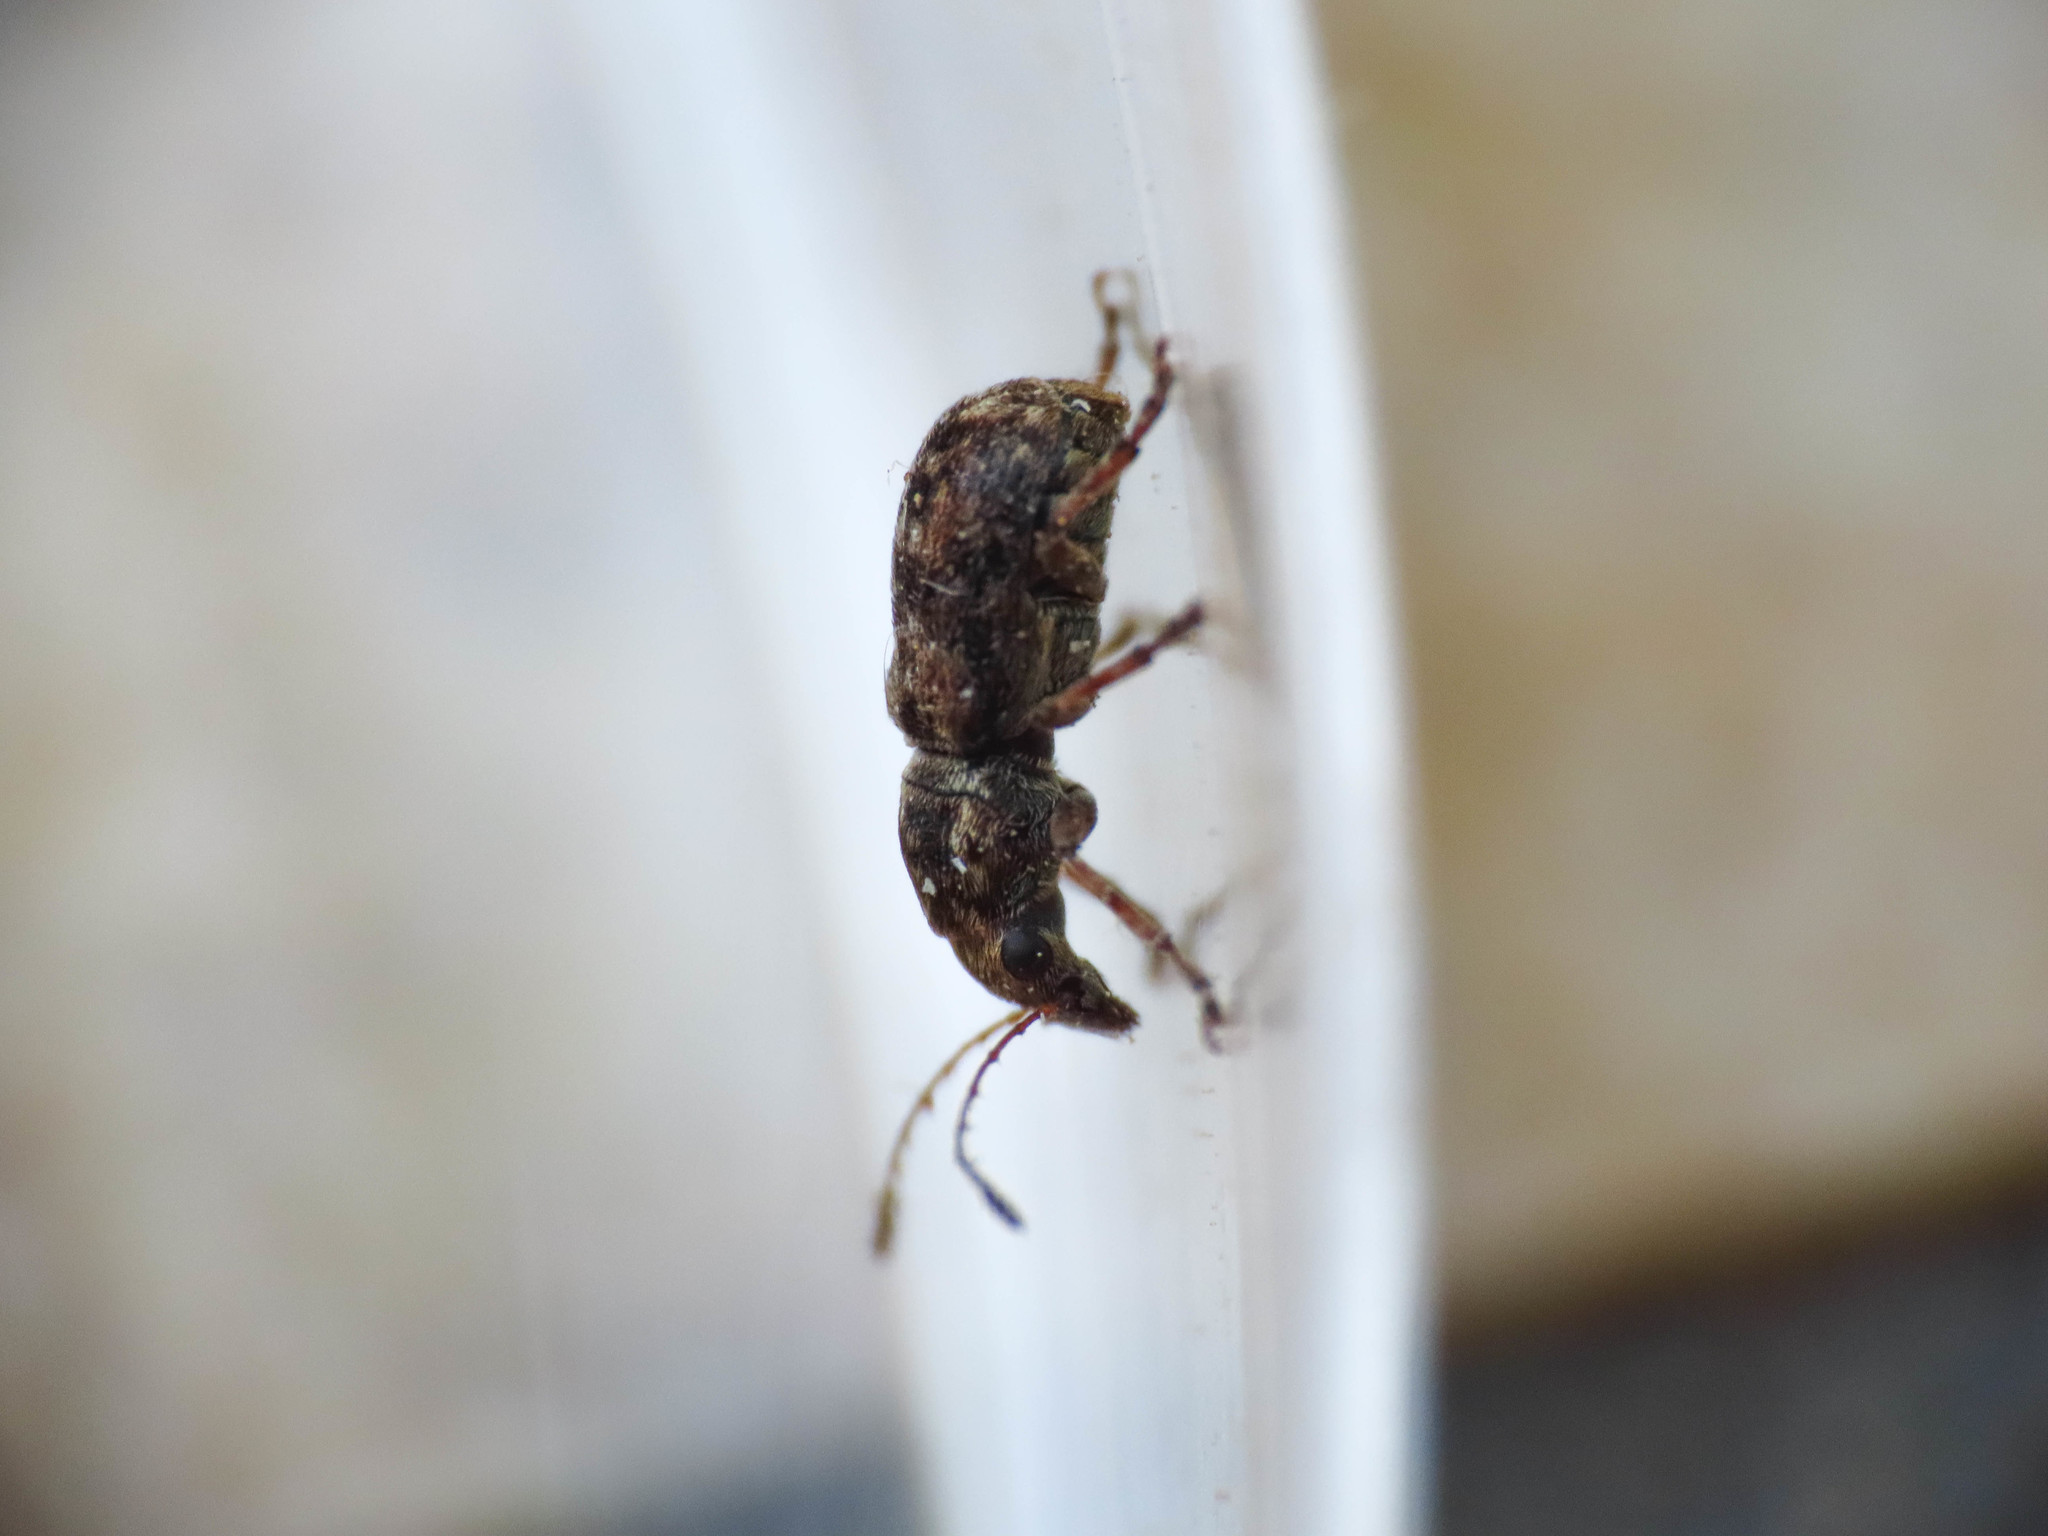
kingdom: Animalia
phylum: Arthropoda
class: Insecta
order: Coleoptera
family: Anthribidae
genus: Enedreytes
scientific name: Enedreytes hilaris
